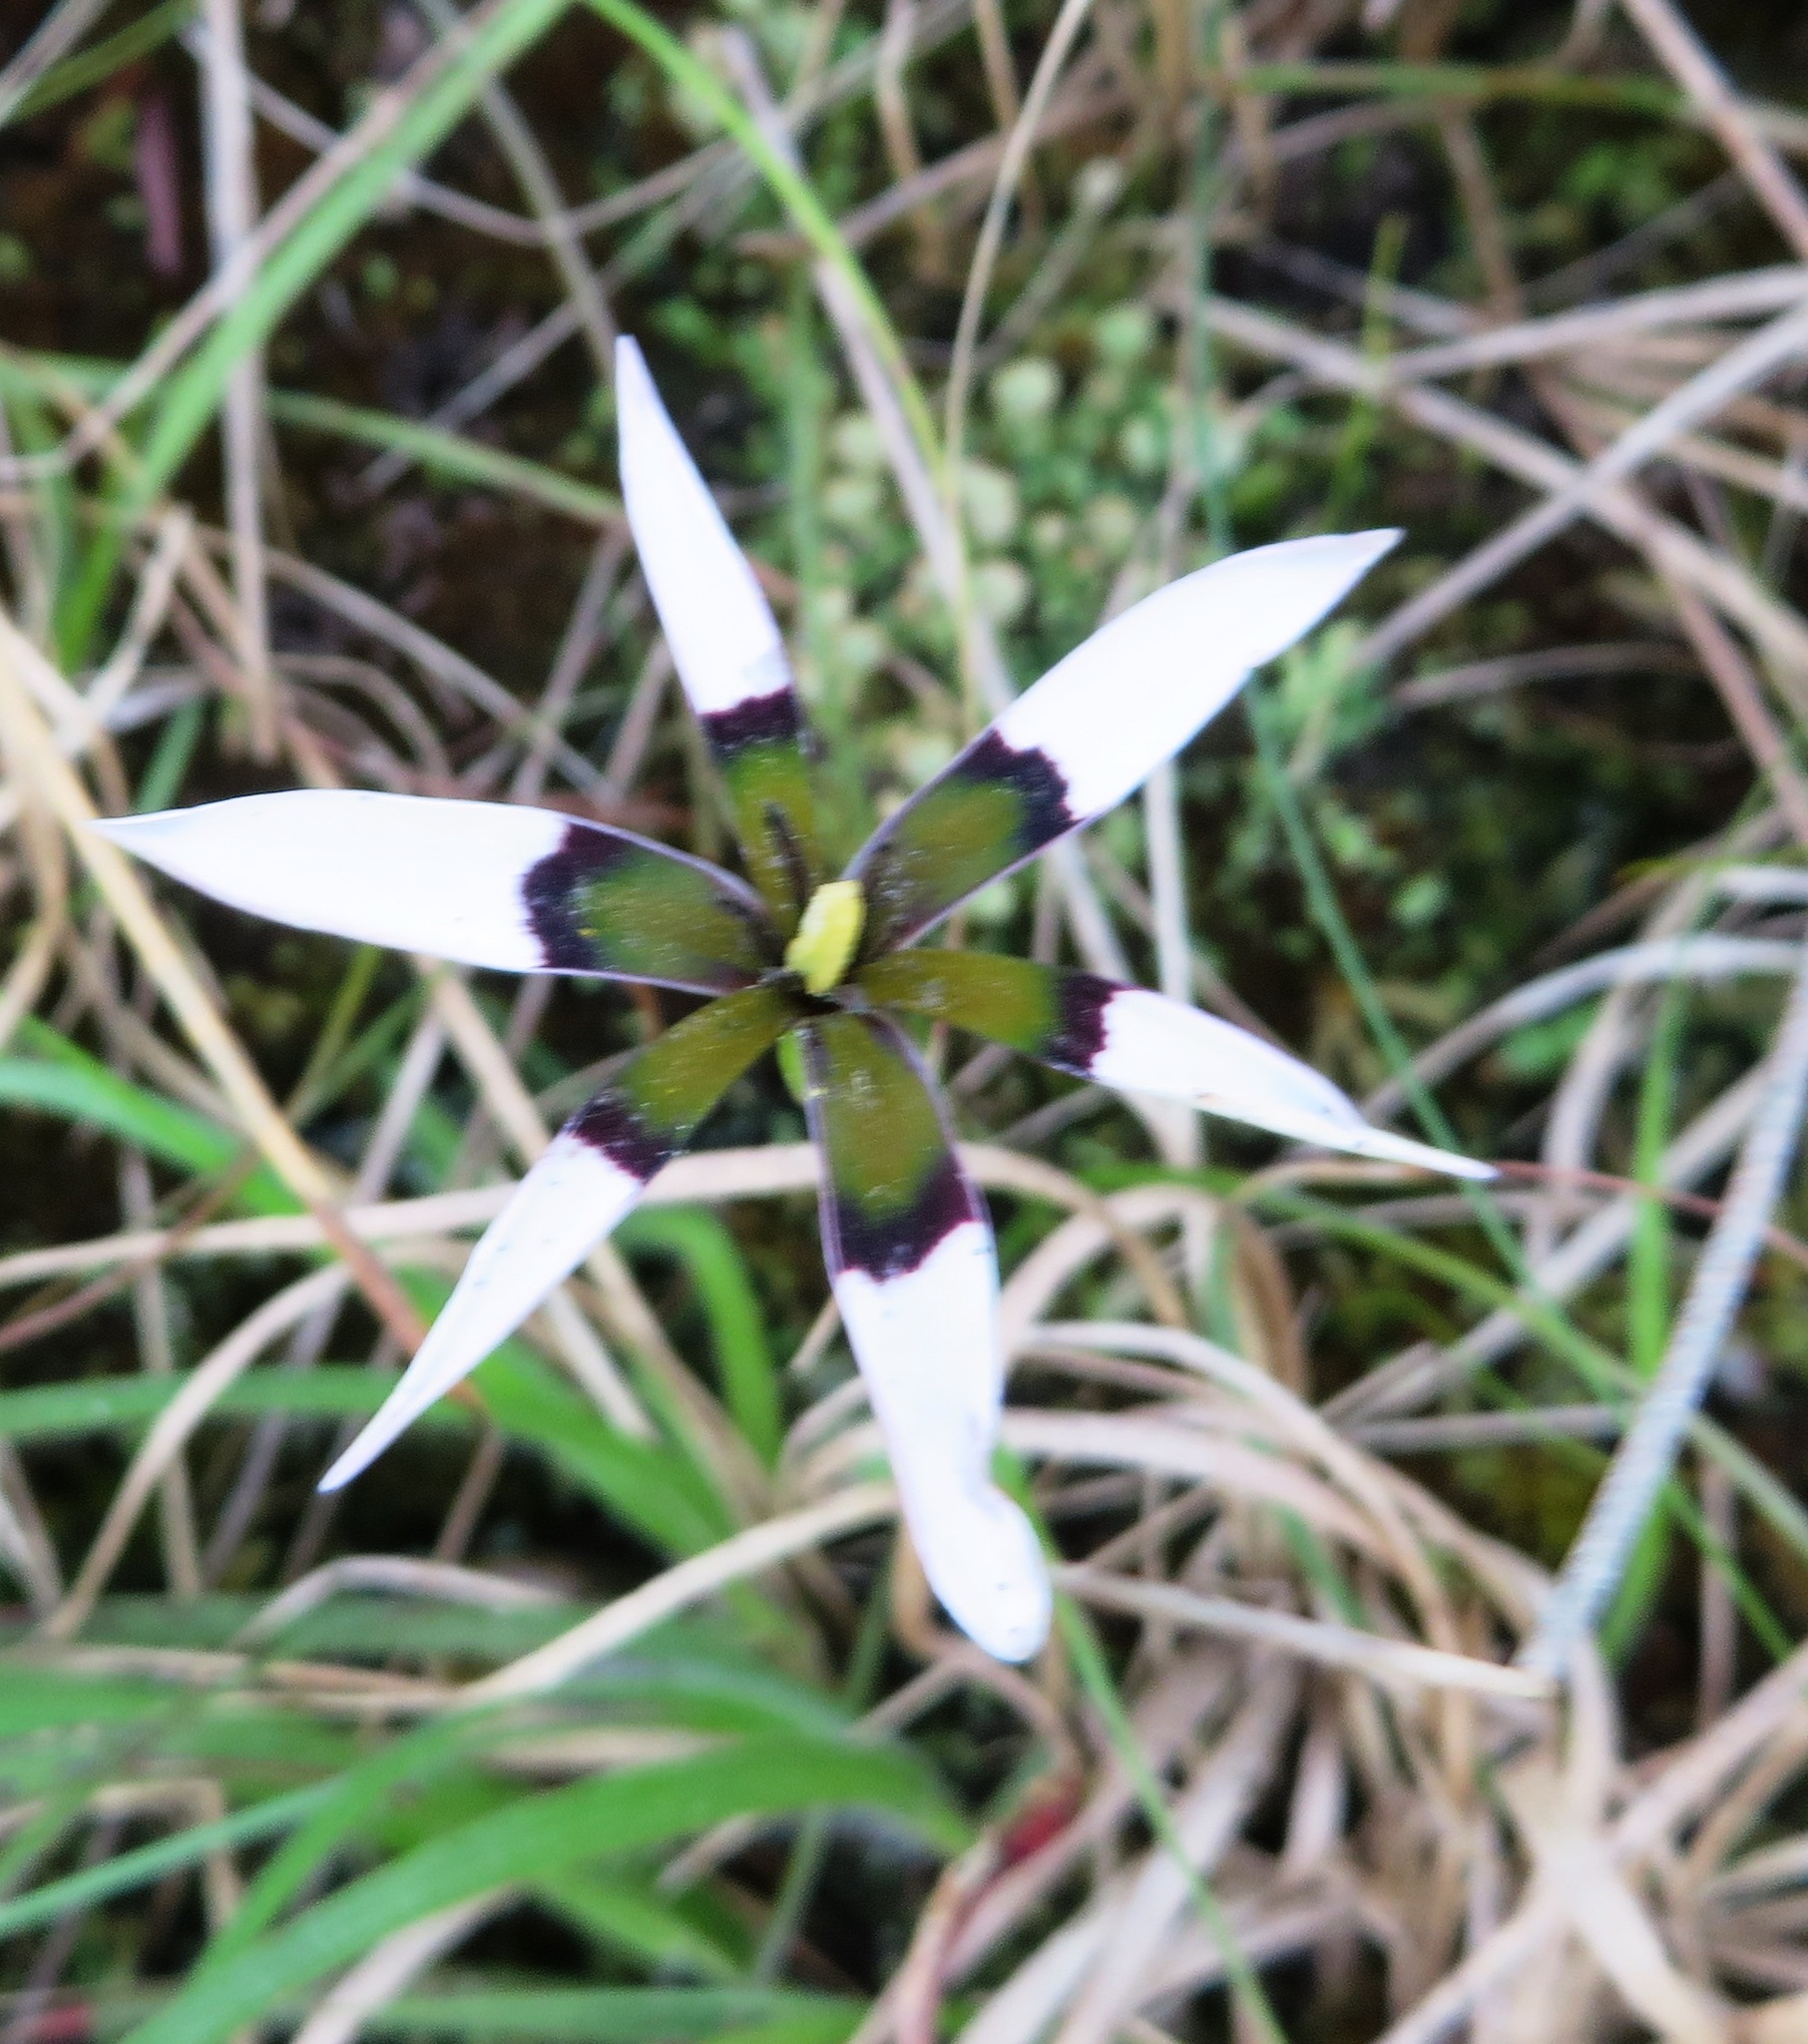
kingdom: Plantae
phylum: Tracheophyta
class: Liliopsida
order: Asparagales
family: Hypoxidaceae
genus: Pauridia
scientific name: Pauridia capensis
